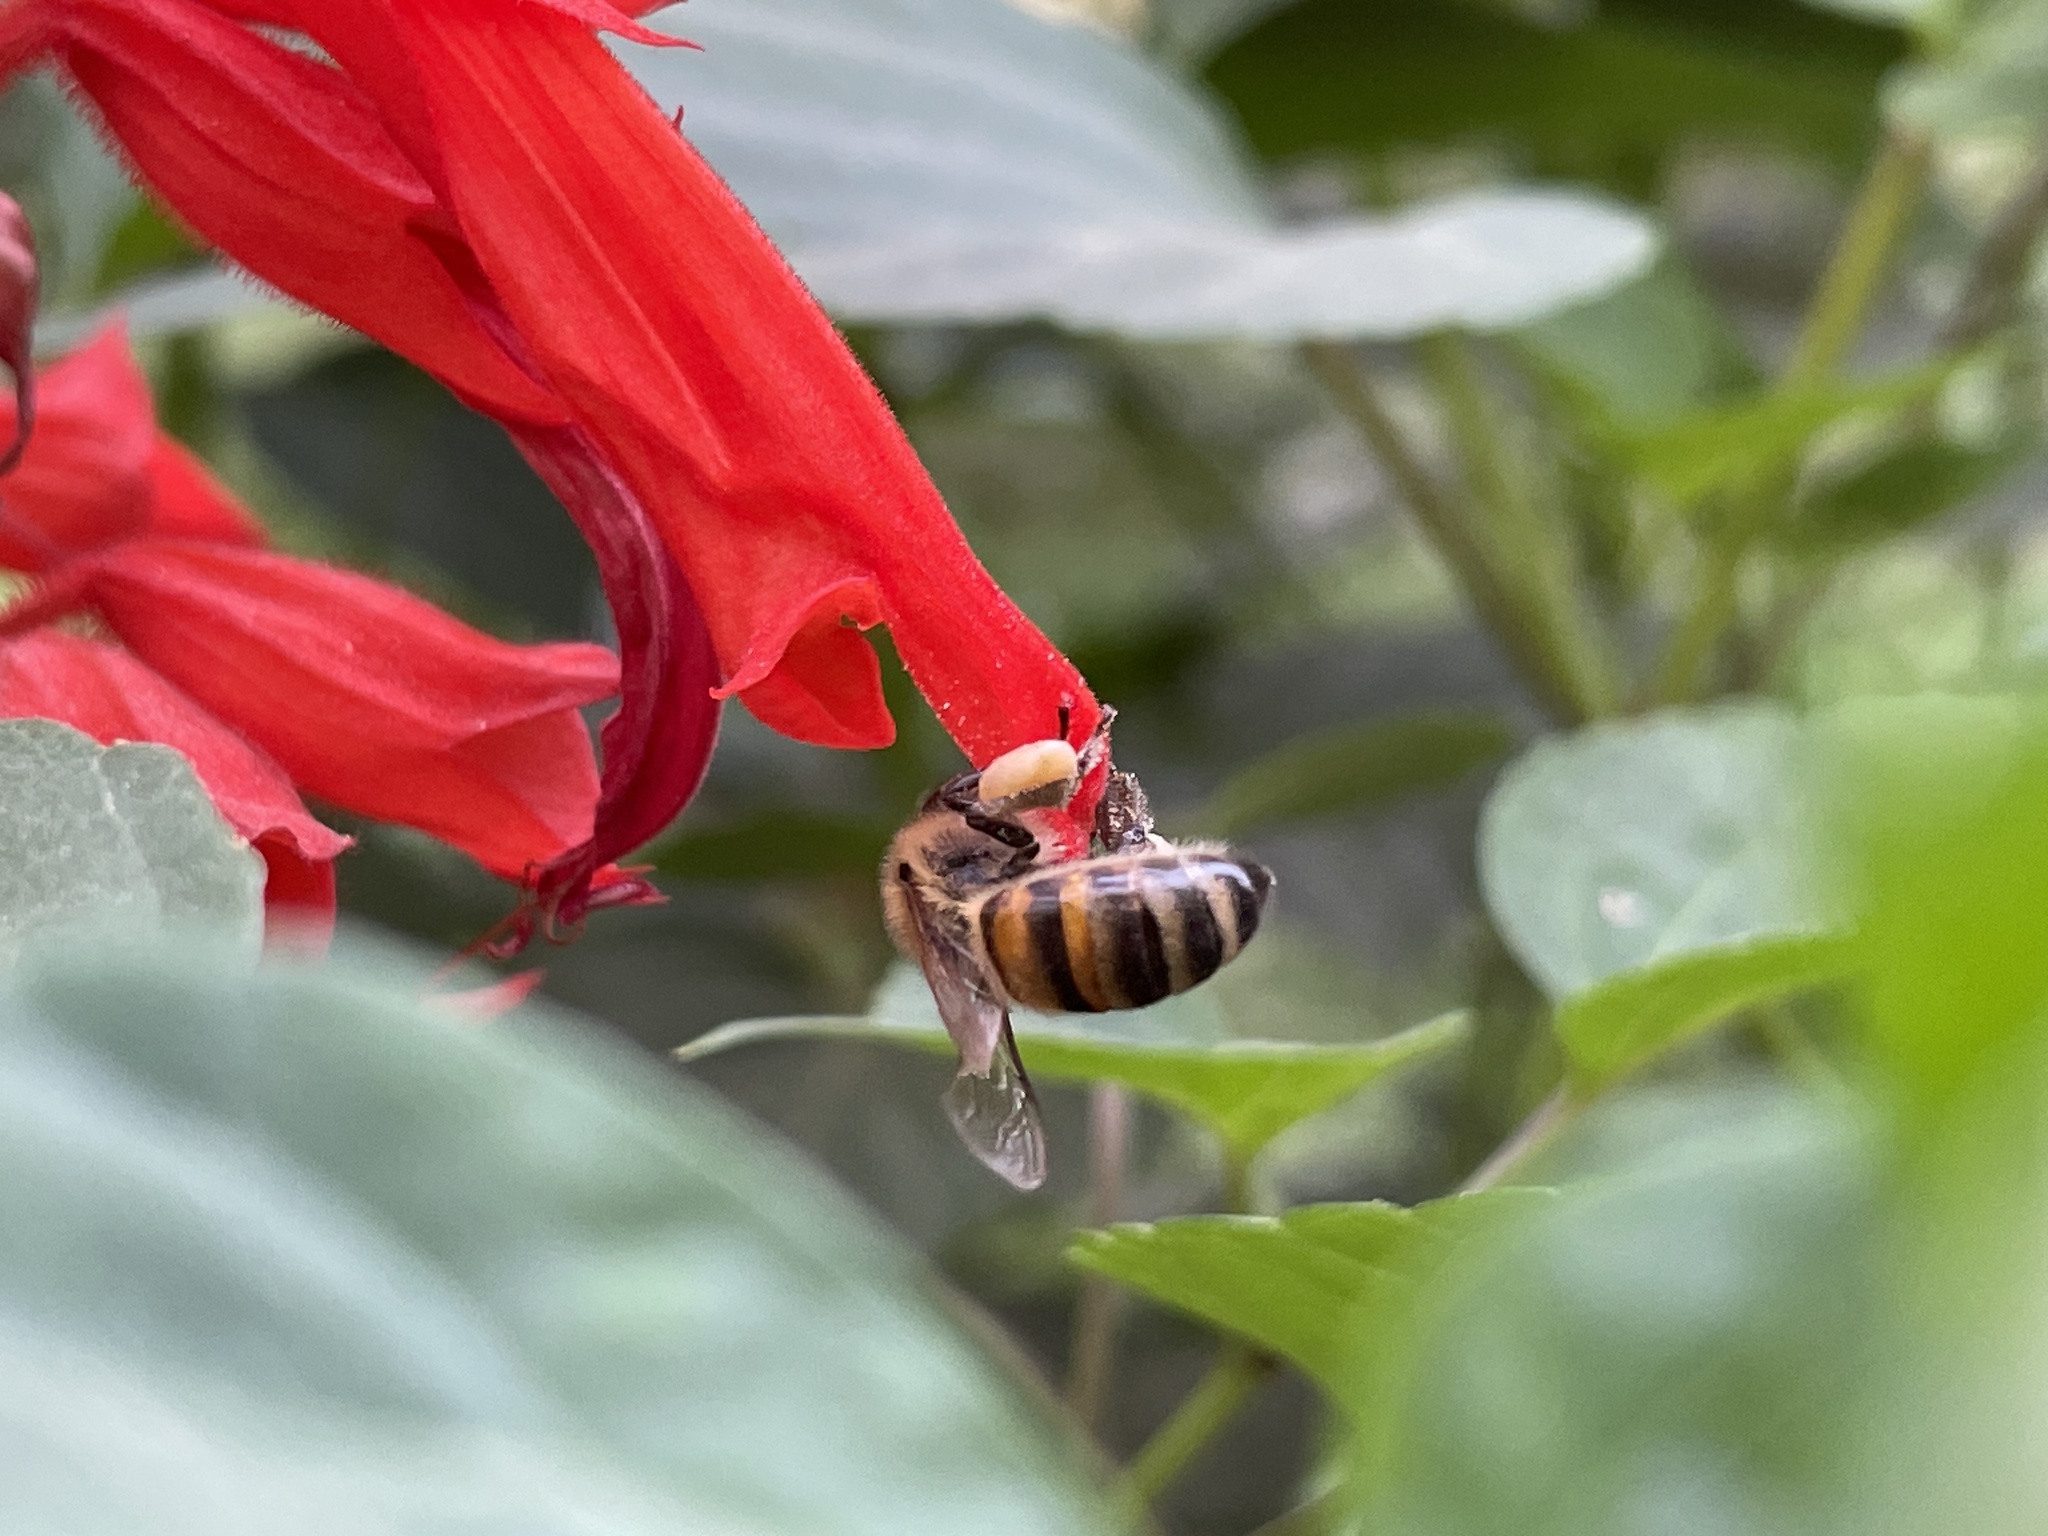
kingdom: Animalia
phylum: Arthropoda
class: Insecta
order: Hymenoptera
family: Apidae
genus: Apis
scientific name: Apis mellifera
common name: Honey bee
